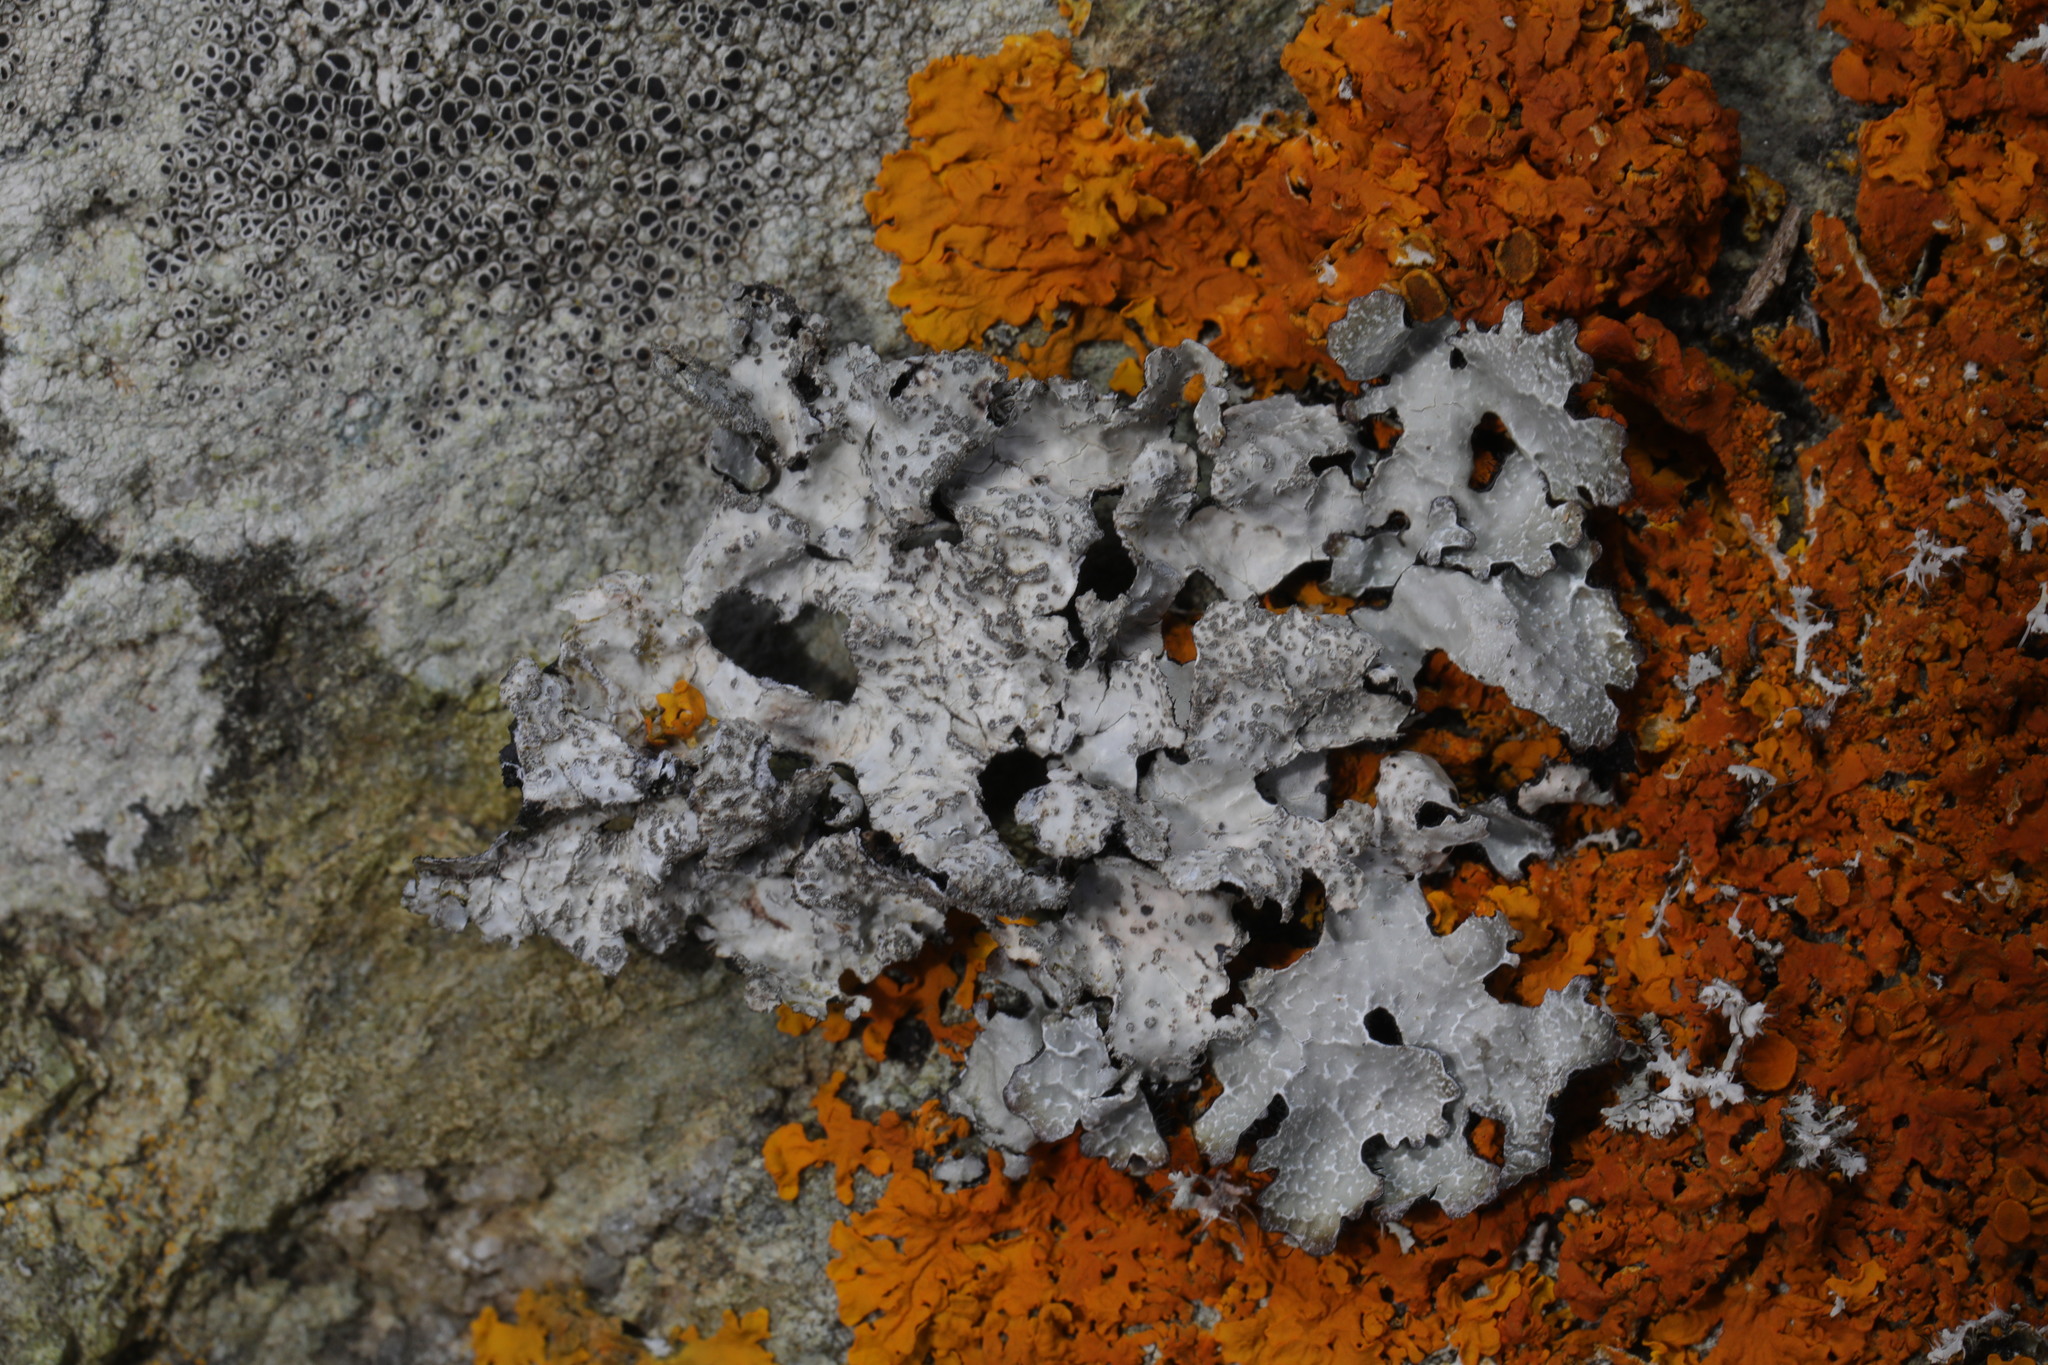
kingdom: Fungi
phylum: Ascomycota
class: Lecanoromycetes
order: Lecanorales
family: Parmeliaceae
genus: Parmelia
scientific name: Parmelia sulcata
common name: Netted shield lichen
